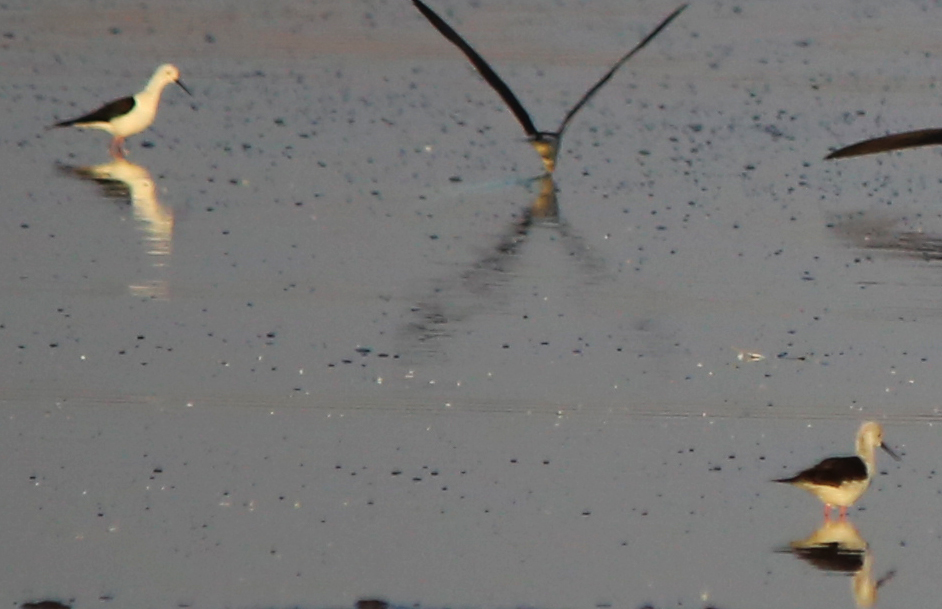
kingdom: Animalia
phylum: Chordata
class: Aves
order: Charadriiformes
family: Recurvirostridae
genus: Himantopus
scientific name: Himantopus himantopus
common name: Black-winged stilt
